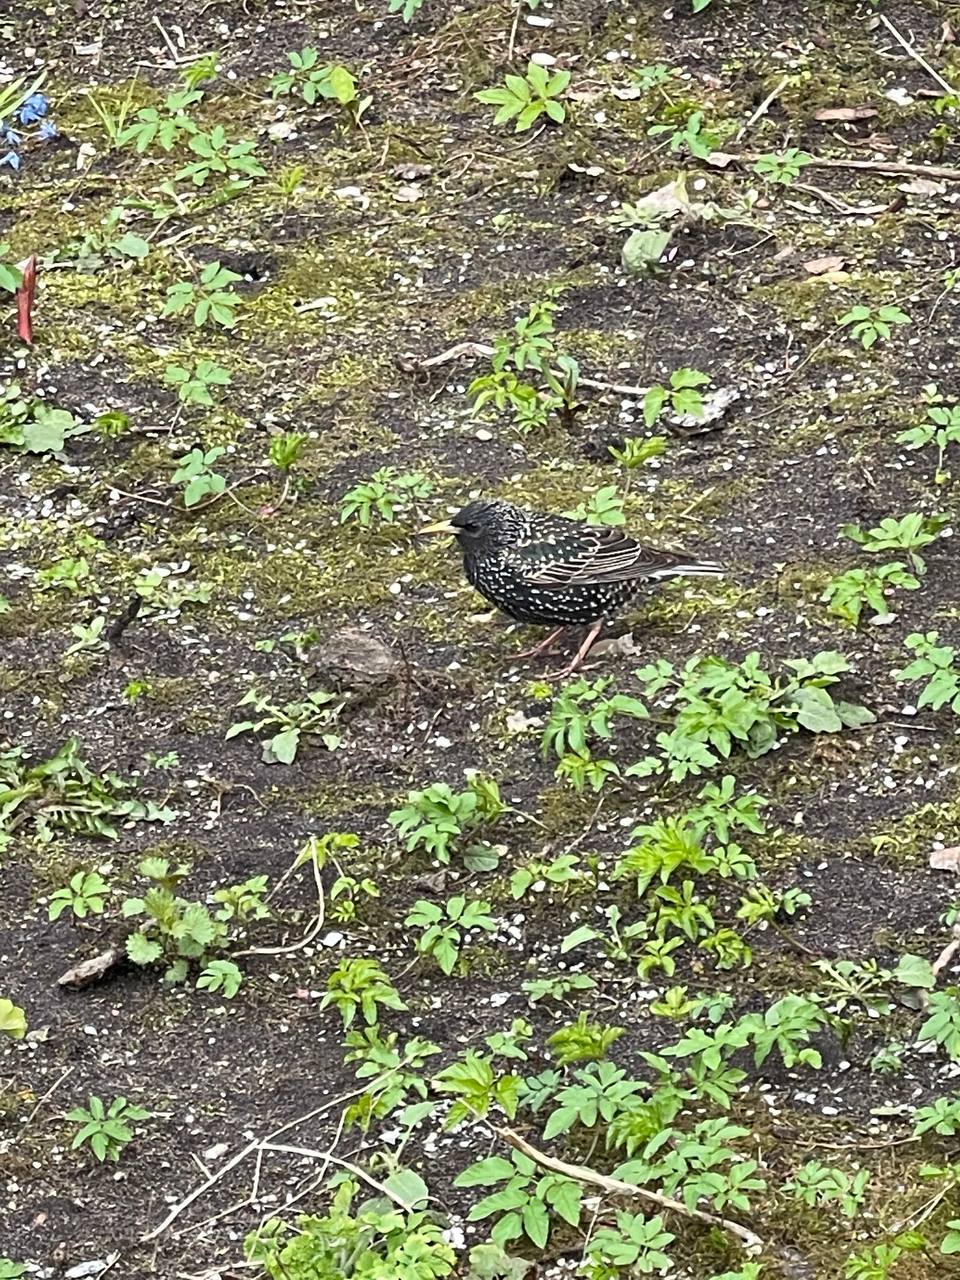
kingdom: Animalia
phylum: Chordata
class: Aves
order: Passeriformes
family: Sturnidae
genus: Sturnus
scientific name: Sturnus vulgaris
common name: Common starling
